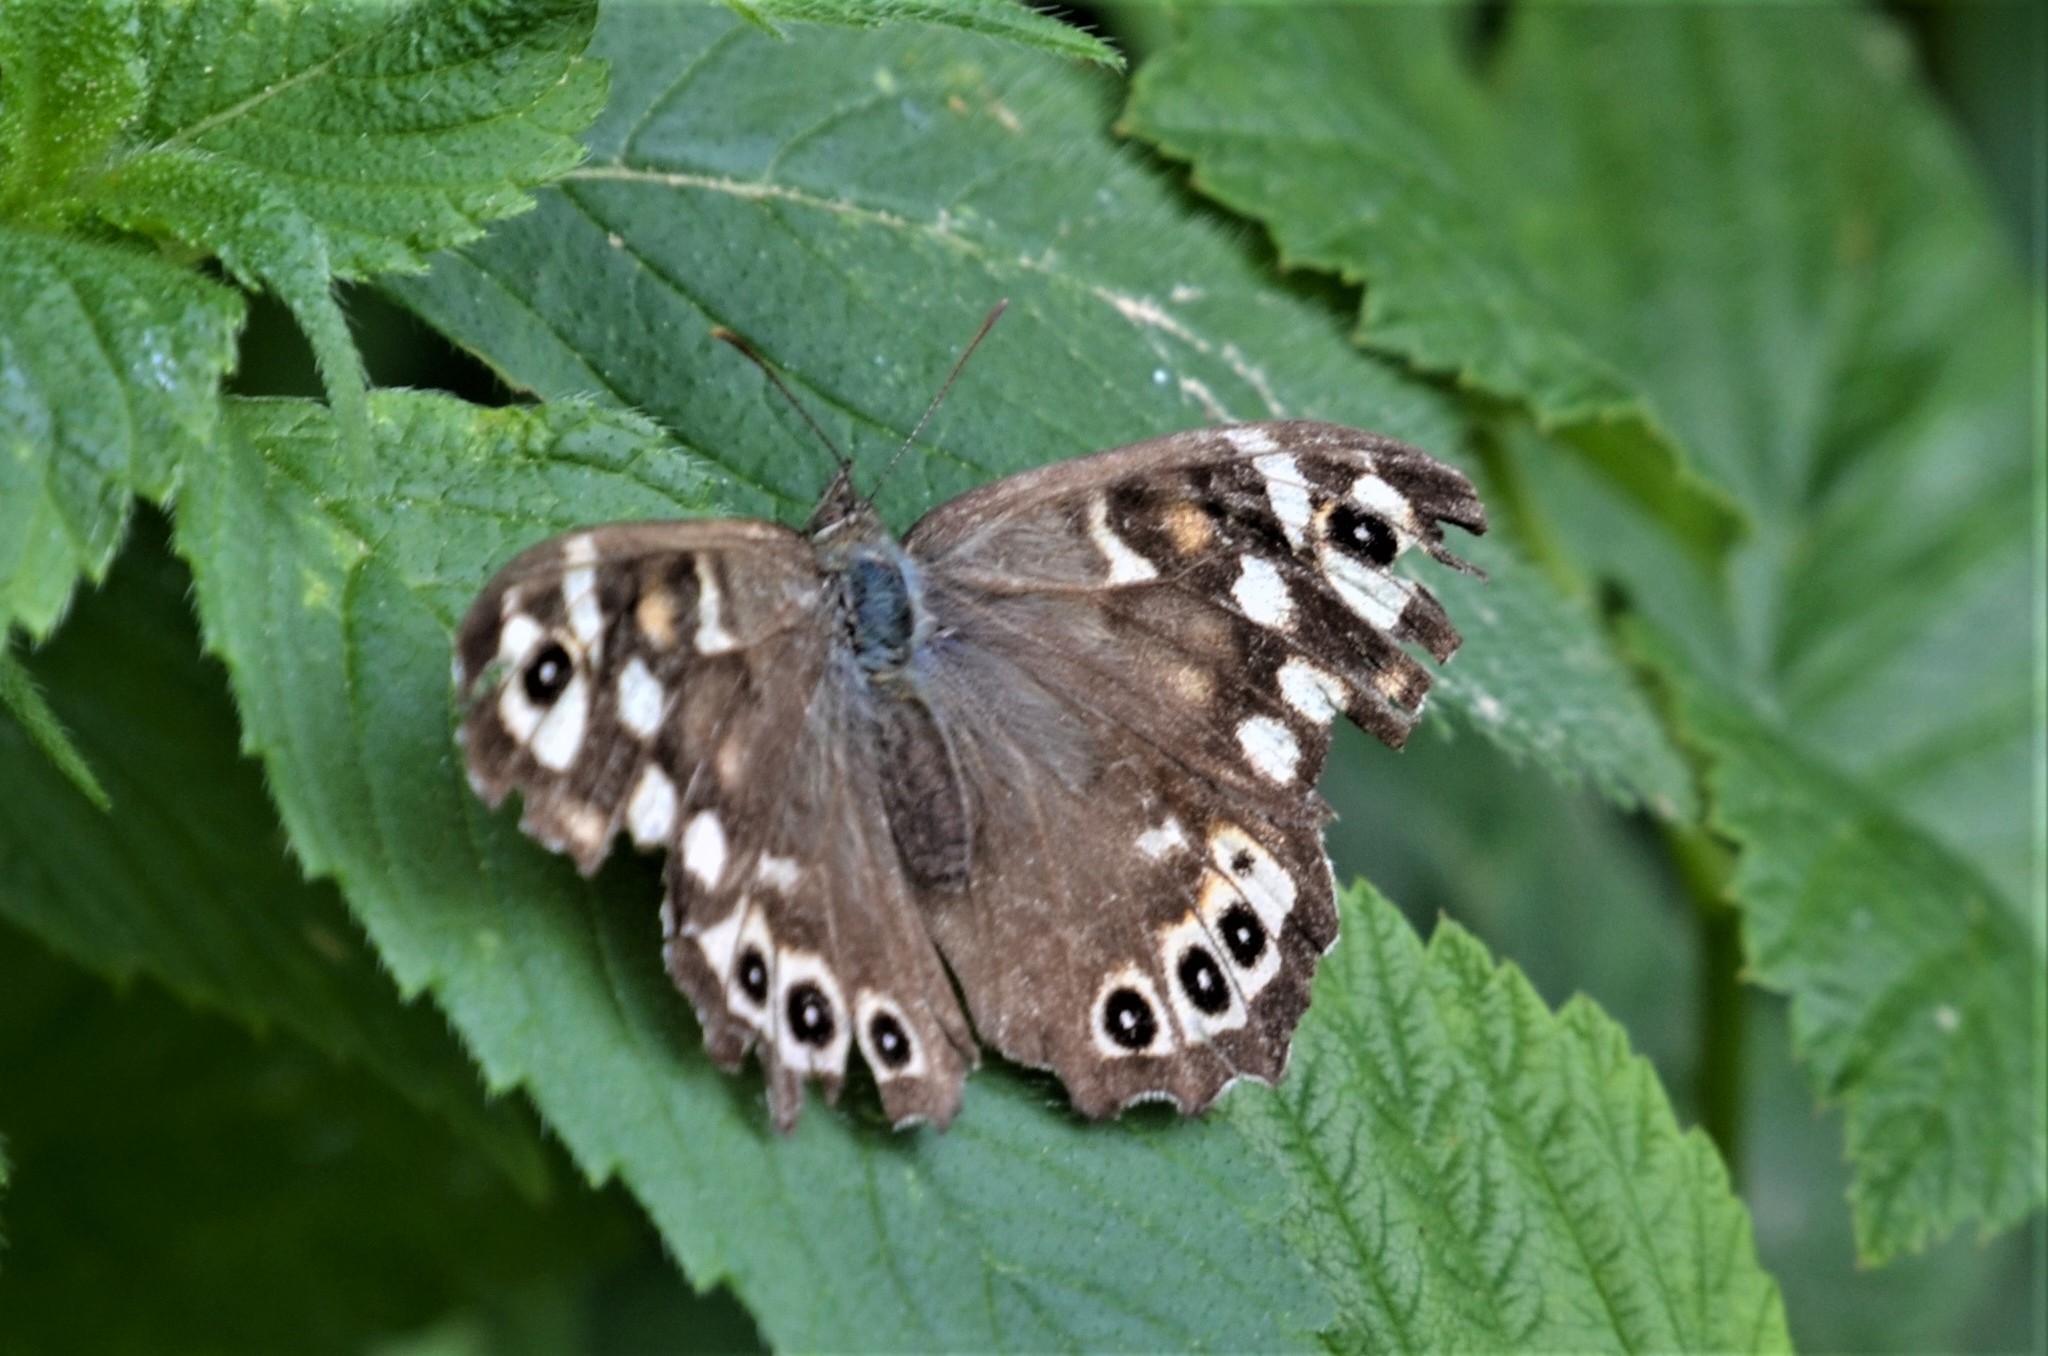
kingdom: Animalia
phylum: Arthropoda
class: Insecta
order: Lepidoptera
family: Nymphalidae
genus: Pararge
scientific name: Pararge aegeria
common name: Speckled wood
